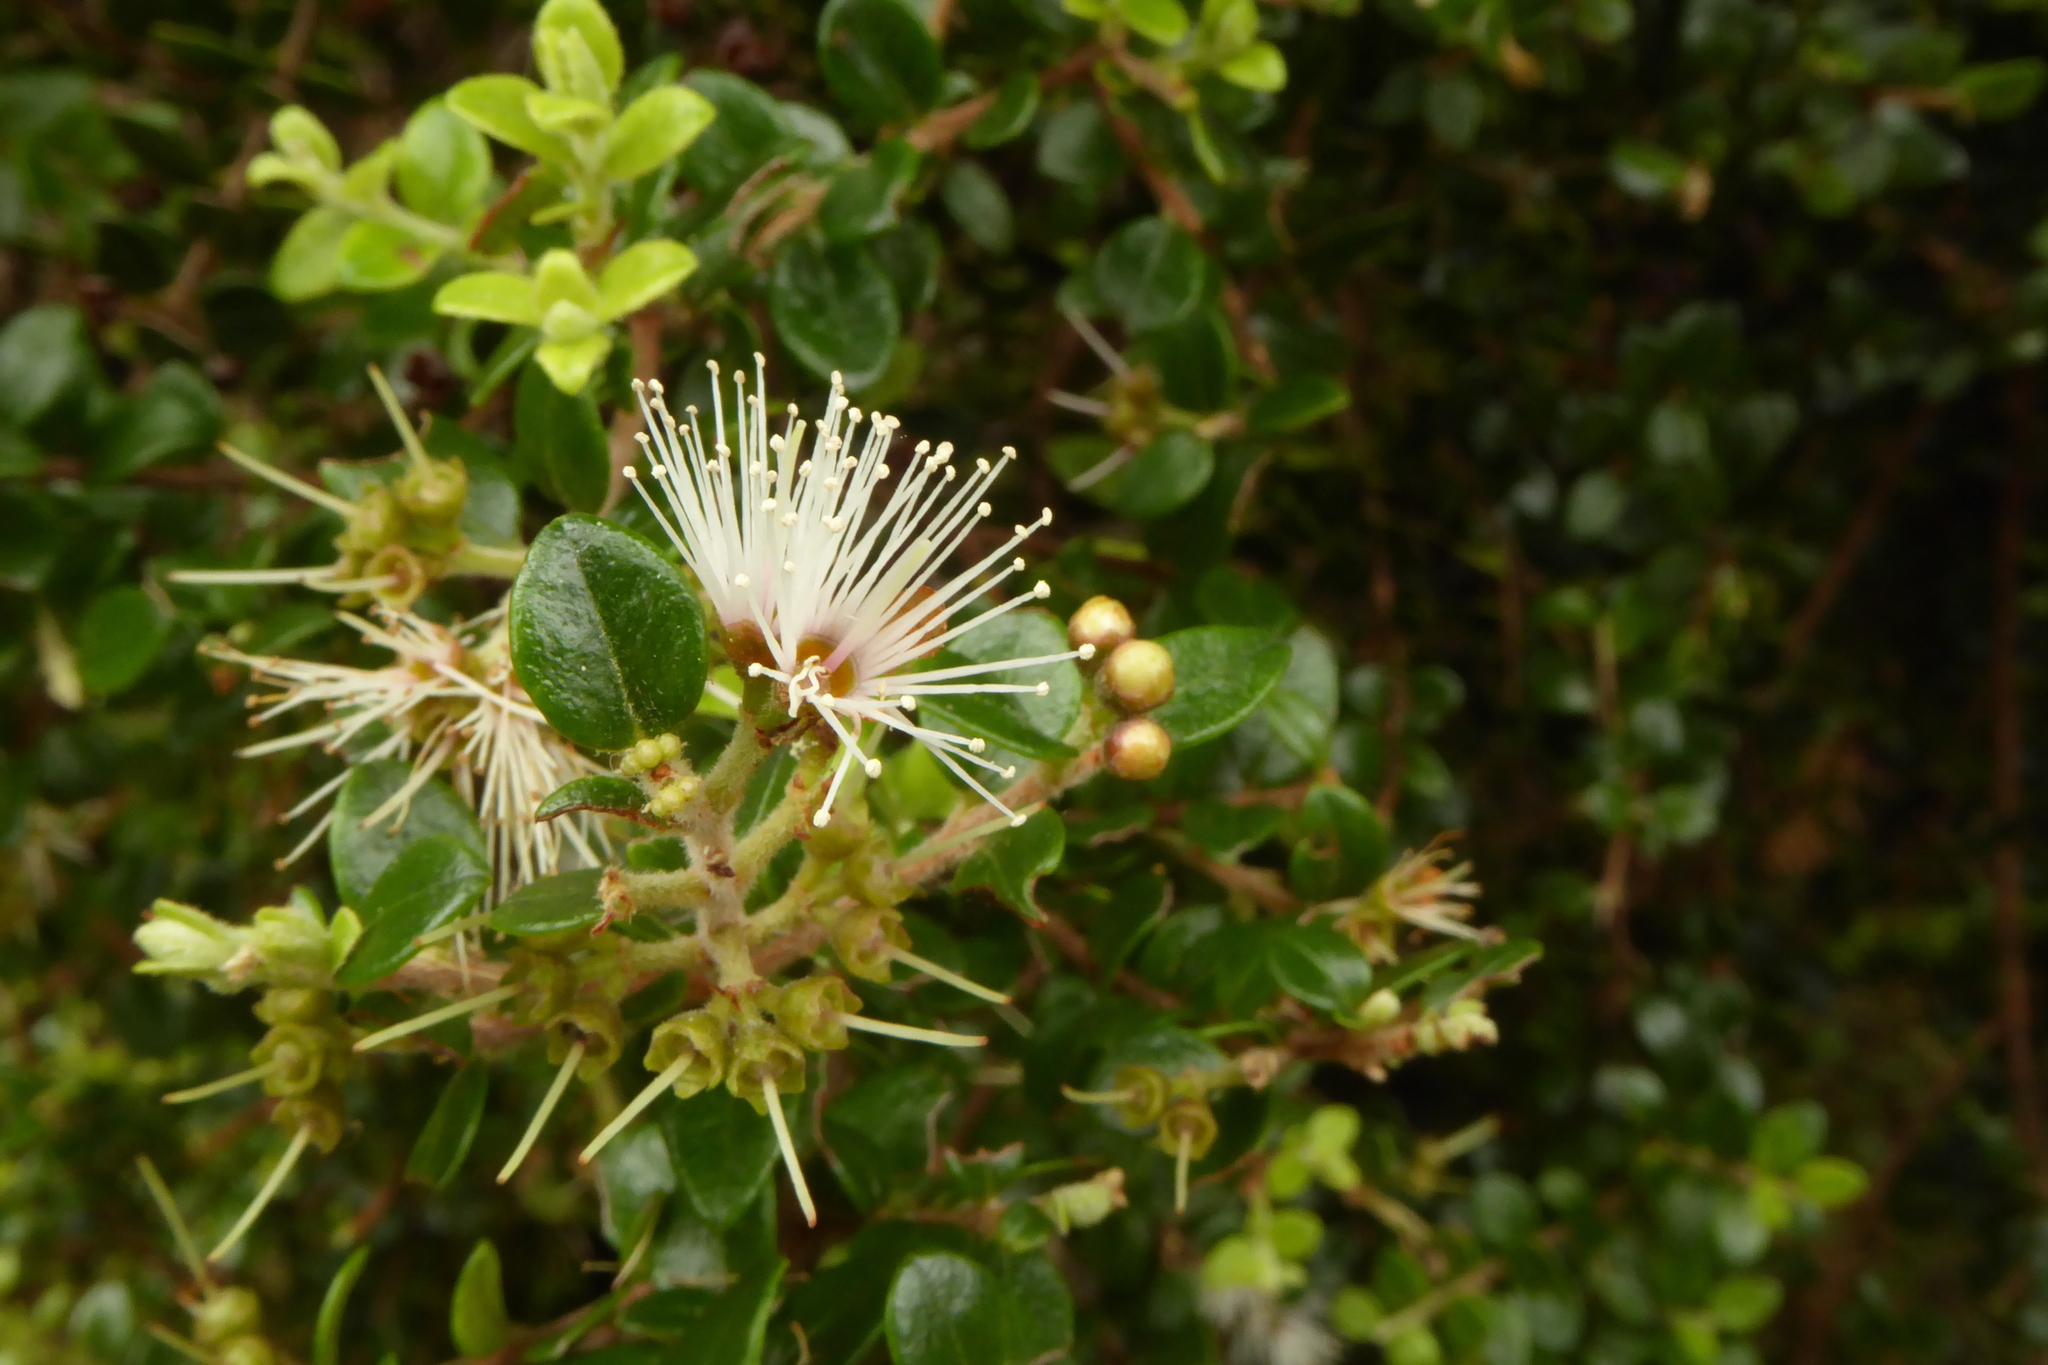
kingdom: Plantae
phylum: Tracheophyta
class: Magnoliopsida
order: Myrtales
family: Myrtaceae
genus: Metrosideros
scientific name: Metrosideros perforata
